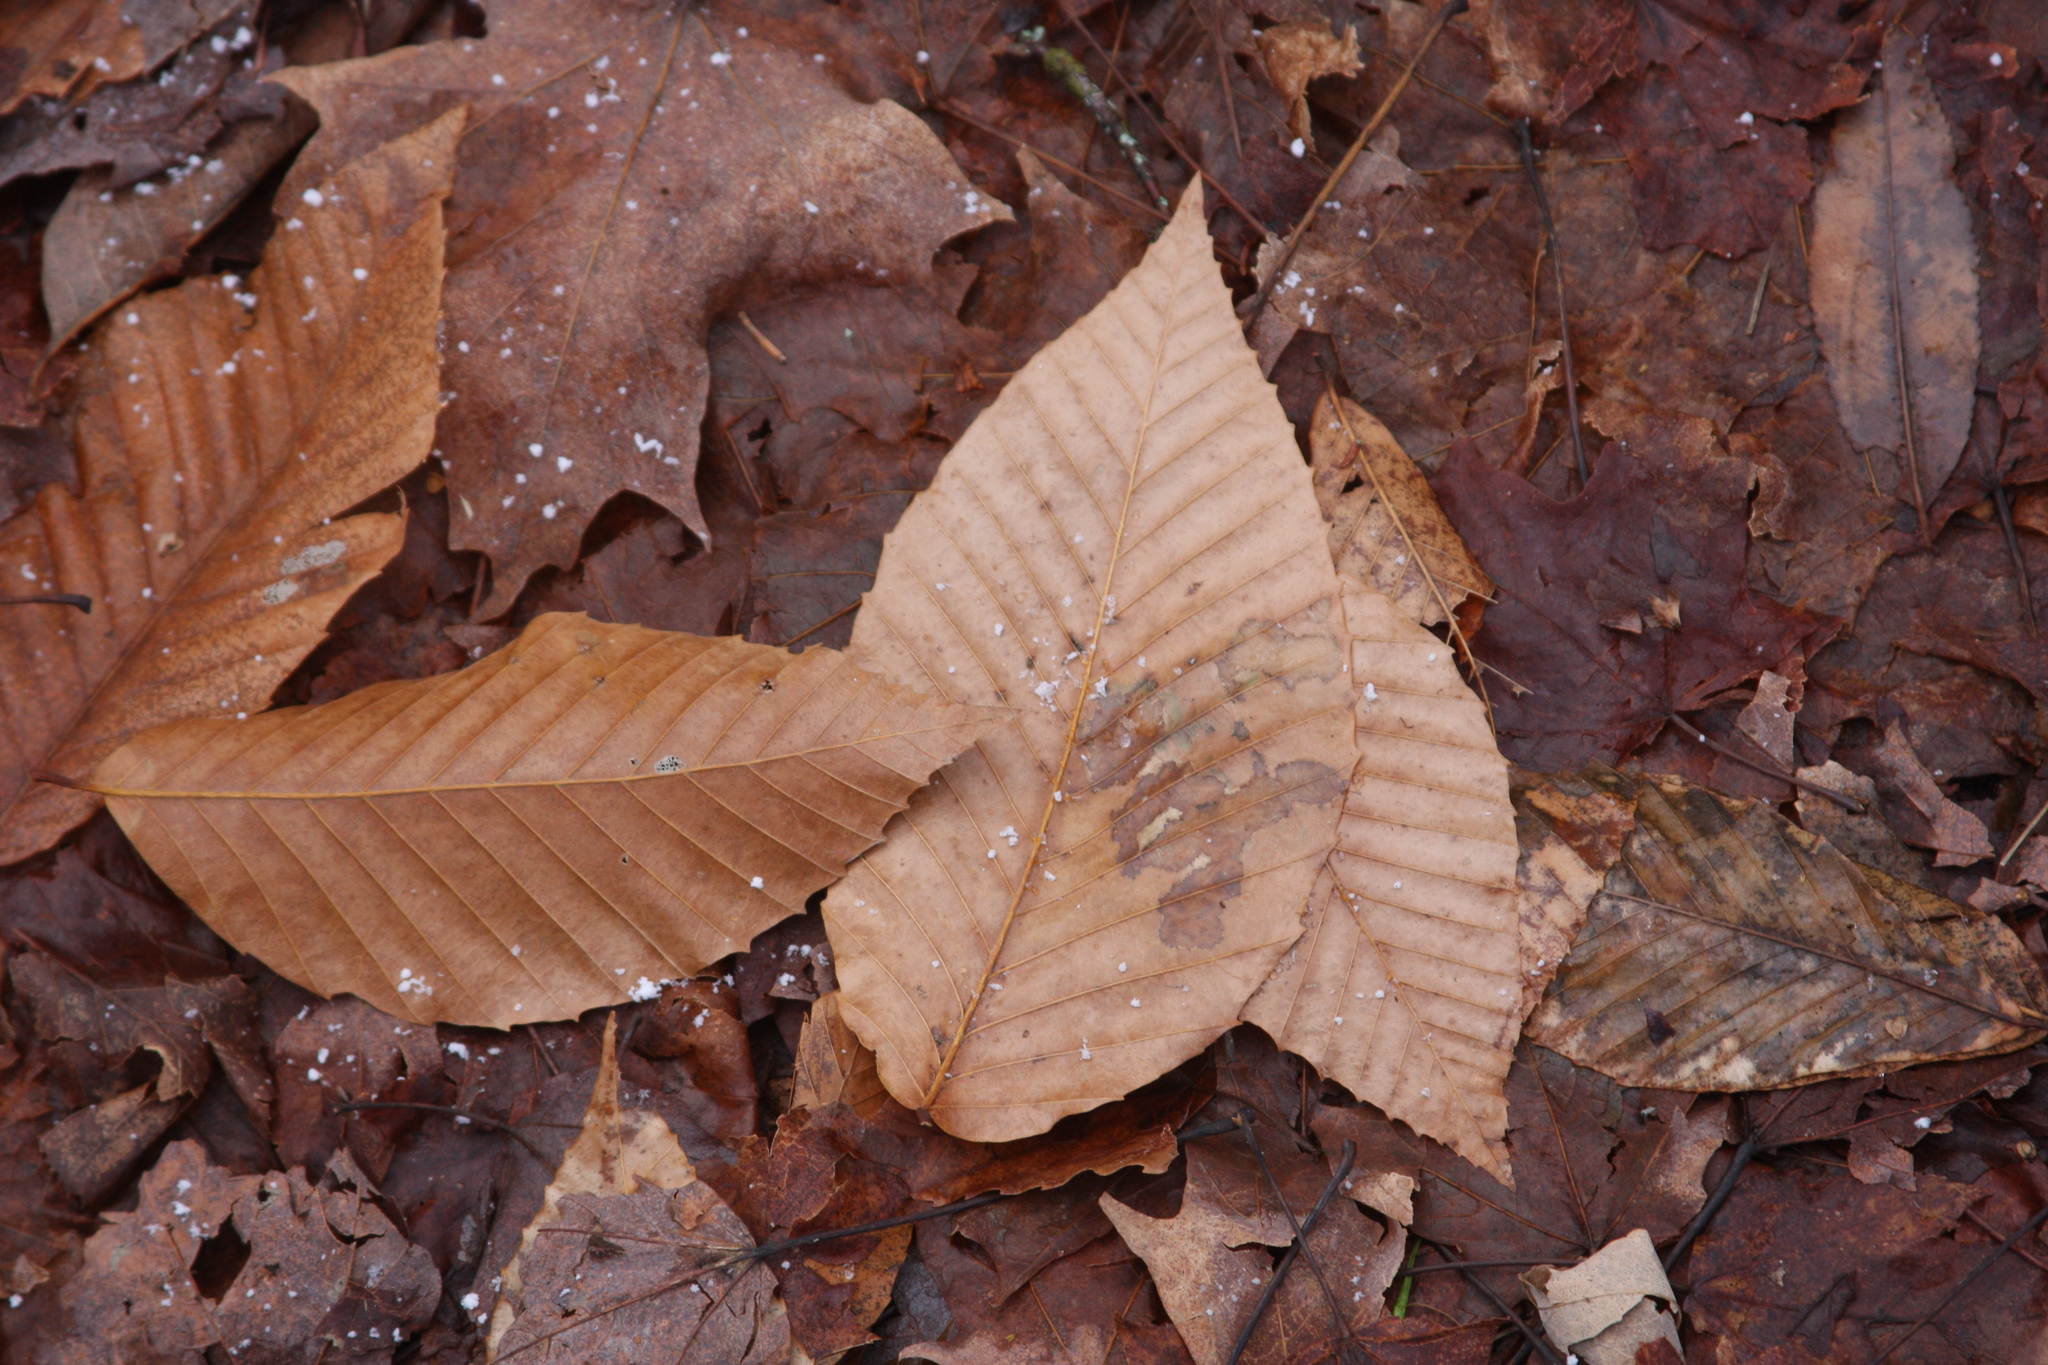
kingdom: Plantae
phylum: Tracheophyta
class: Magnoliopsida
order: Fagales
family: Fagaceae
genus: Fagus
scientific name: Fagus grandifolia
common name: American beech
